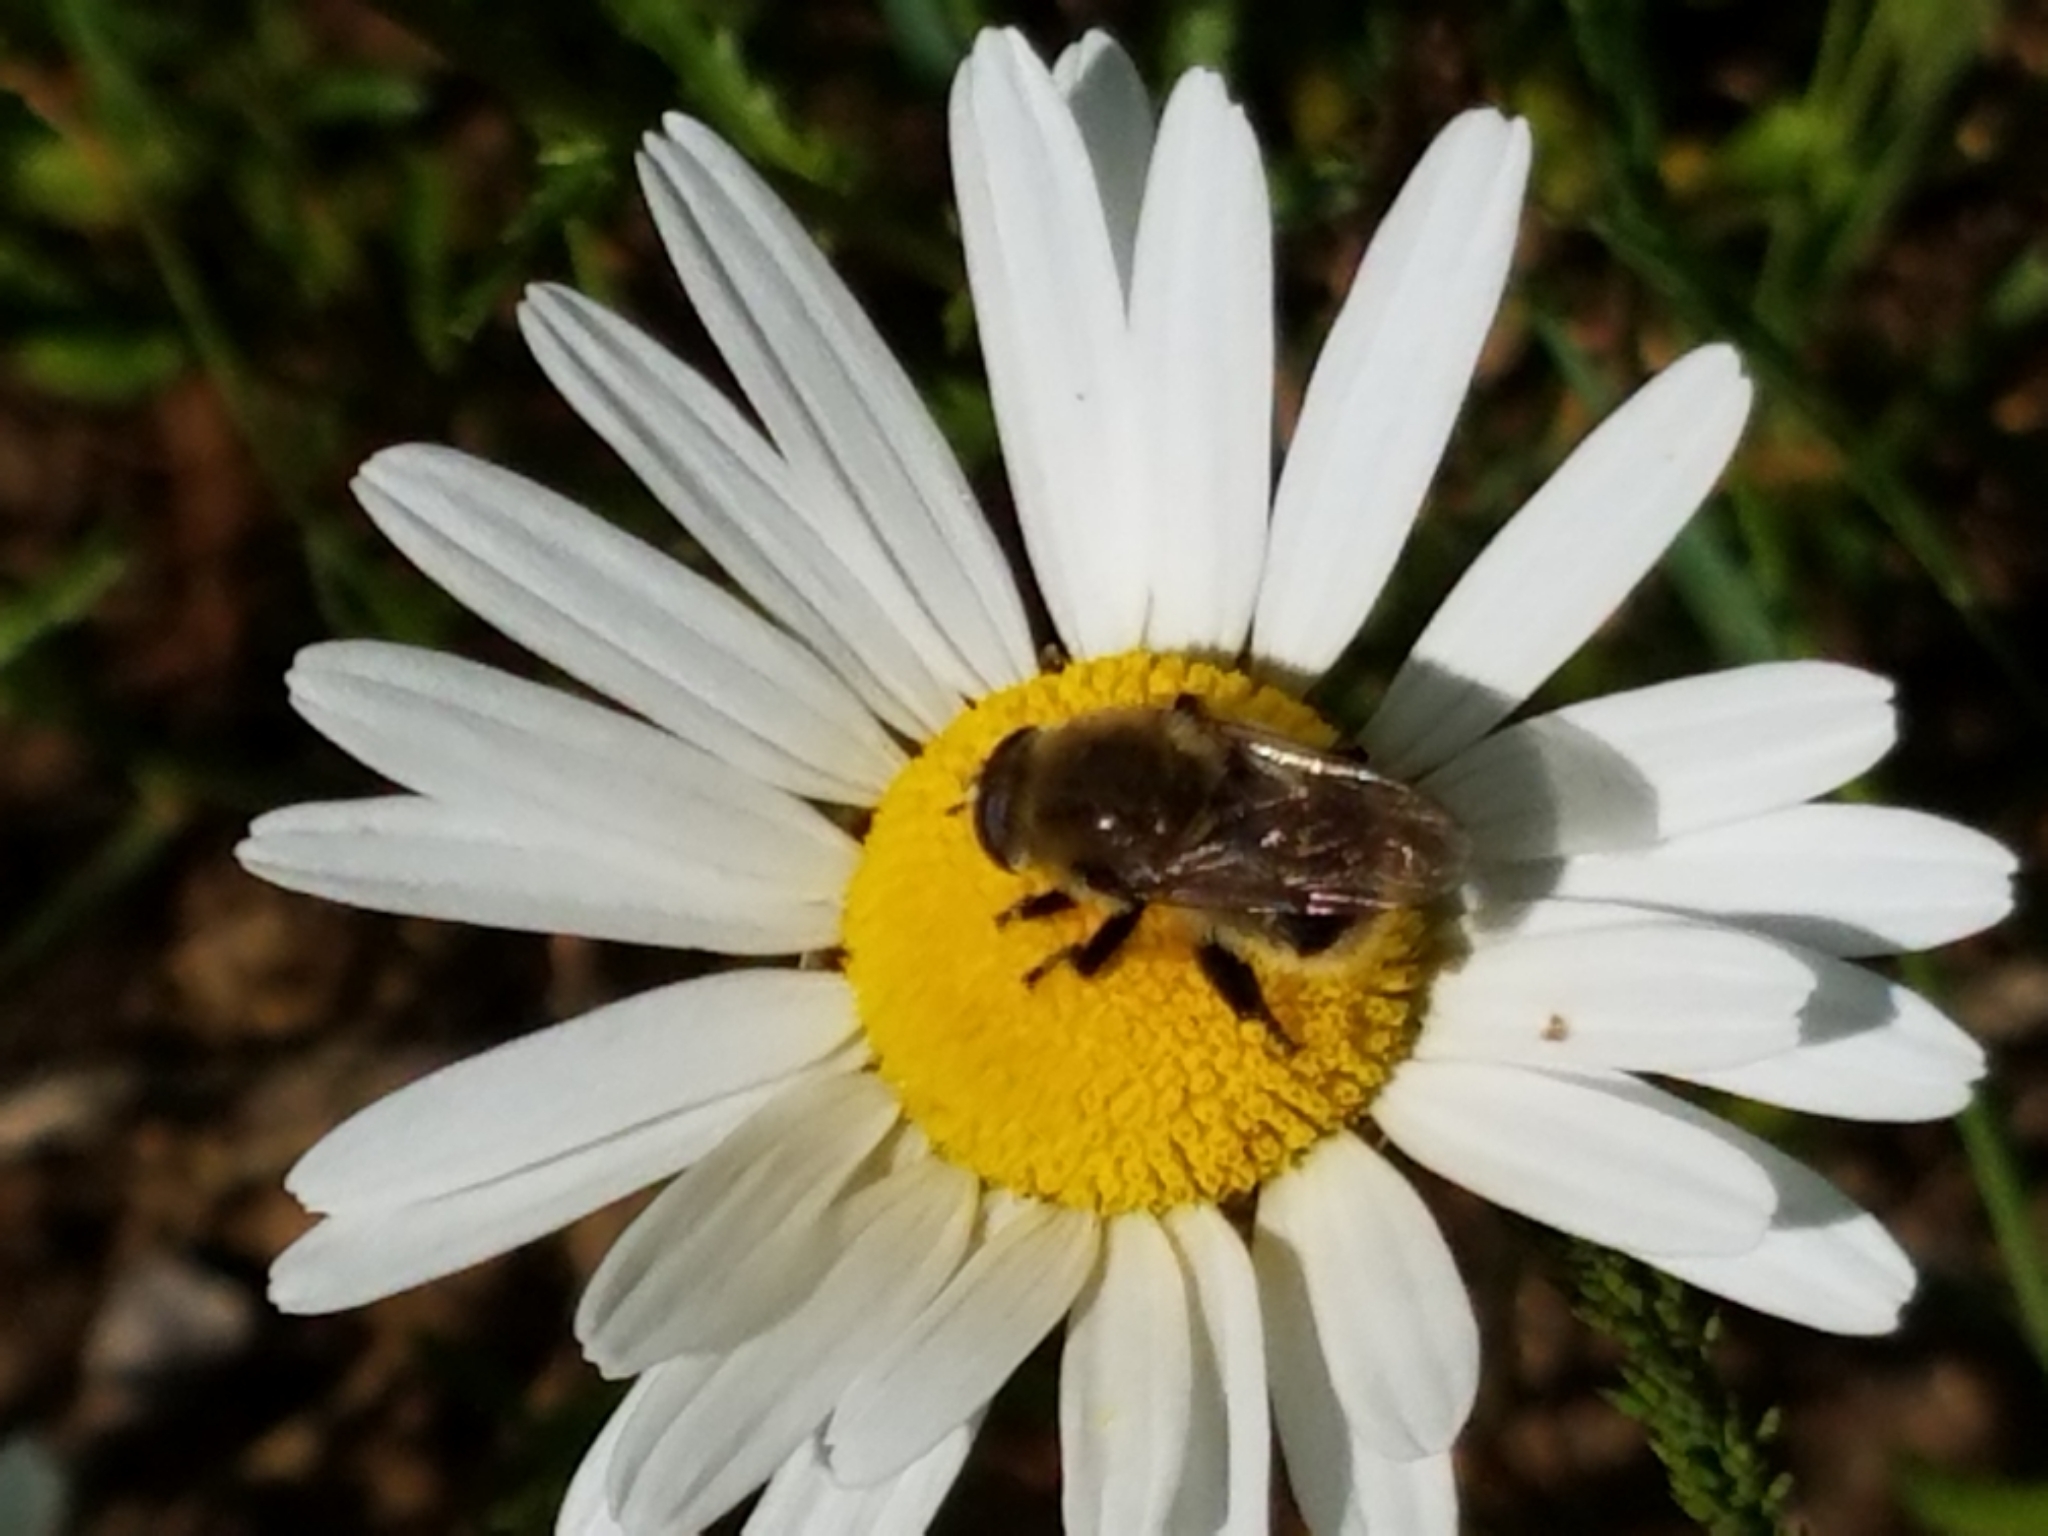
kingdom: Animalia
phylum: Arthropoda
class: Insecta
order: Diptera
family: Syrphidae
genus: Merodon
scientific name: Merodon equestris
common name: Greater bulb-fly
